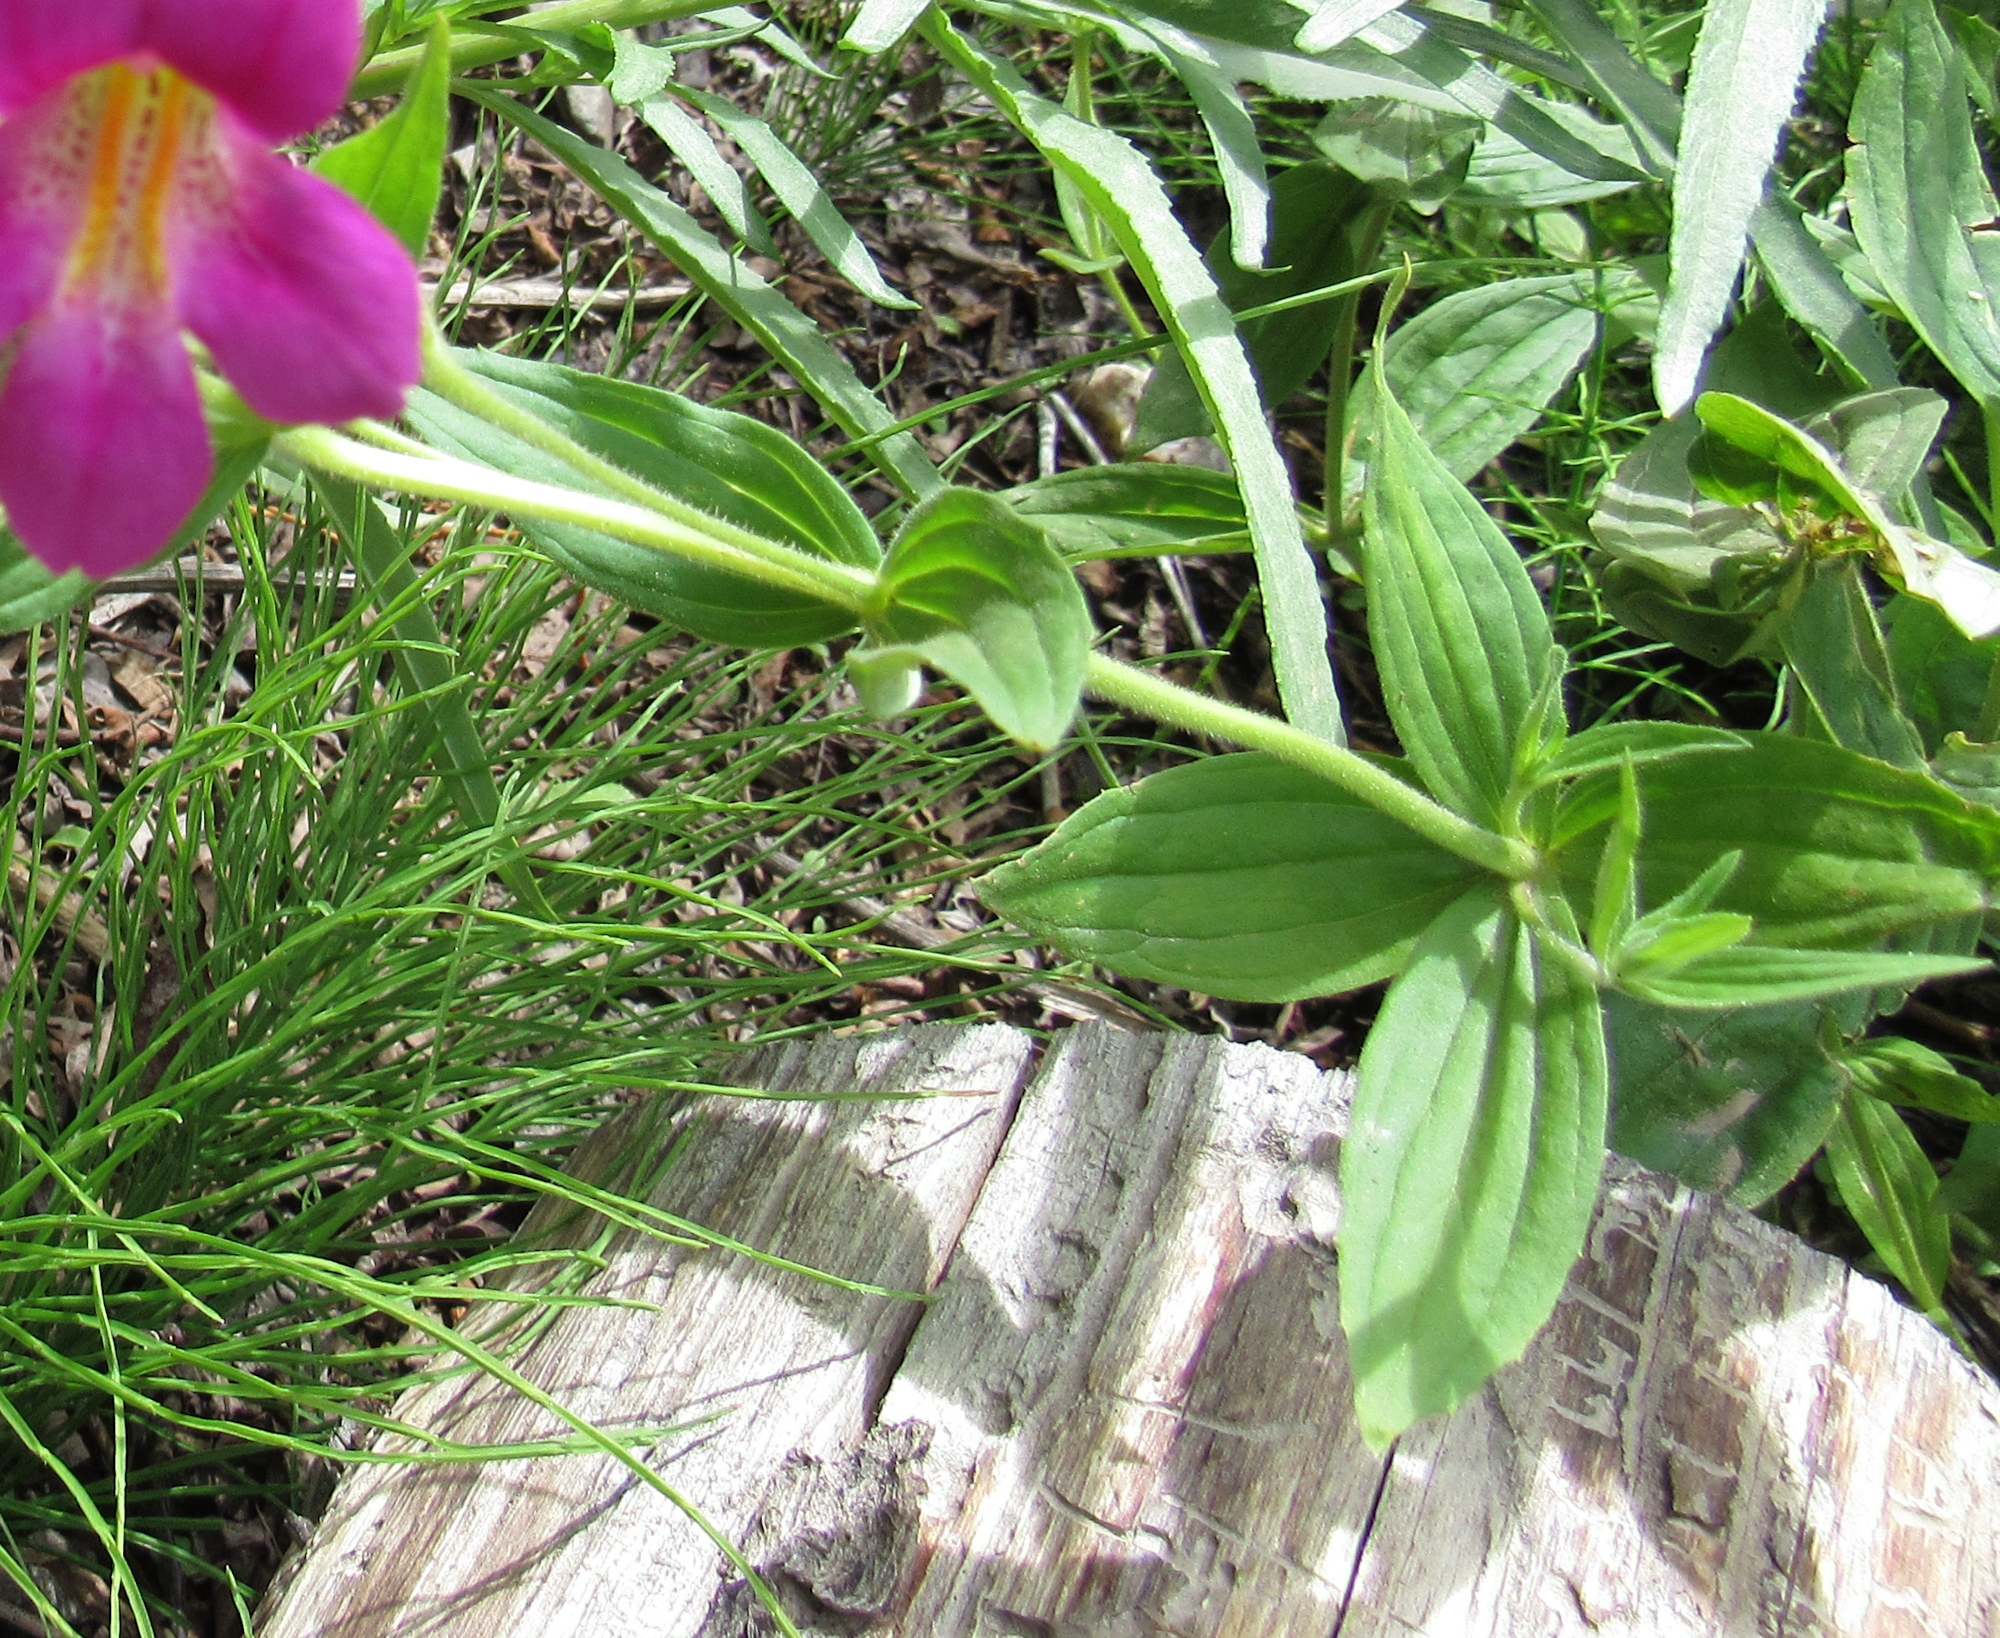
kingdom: Plantae
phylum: Tracheophyta
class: Magnoliopsida
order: Lamiales
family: Phrymaceae
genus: Erythranthe
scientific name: Erythranthe lewisii
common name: Lewis's monkey-flower
